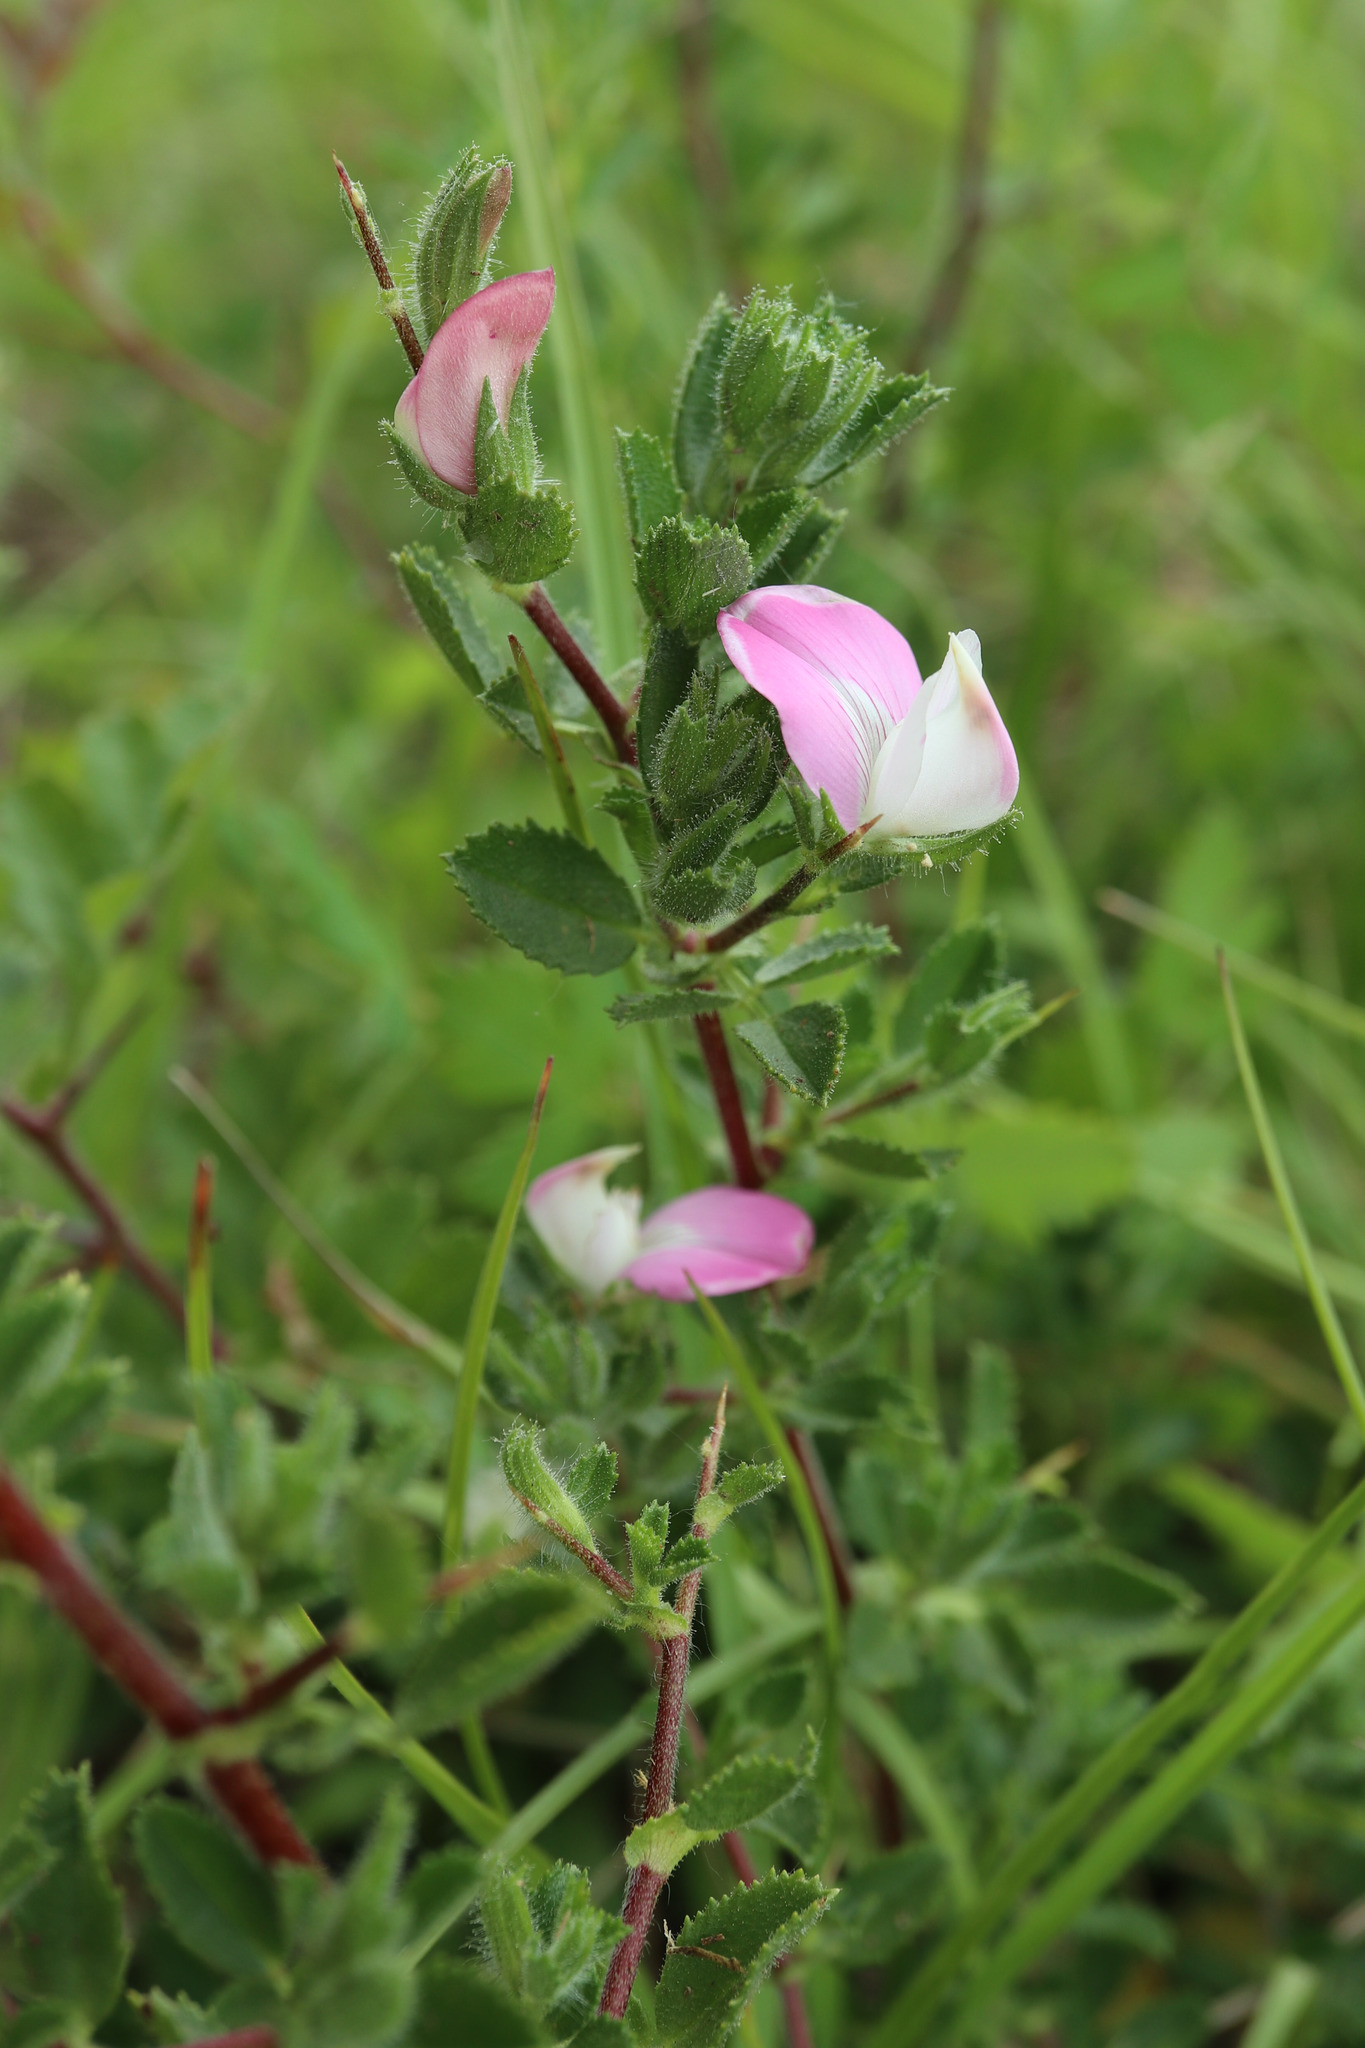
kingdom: Plantae
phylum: Tracheophyta
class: Magnoliopsida
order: Fabales
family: Fabaceae
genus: Ononis
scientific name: Ononis spinosa
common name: Spiny restharrow
